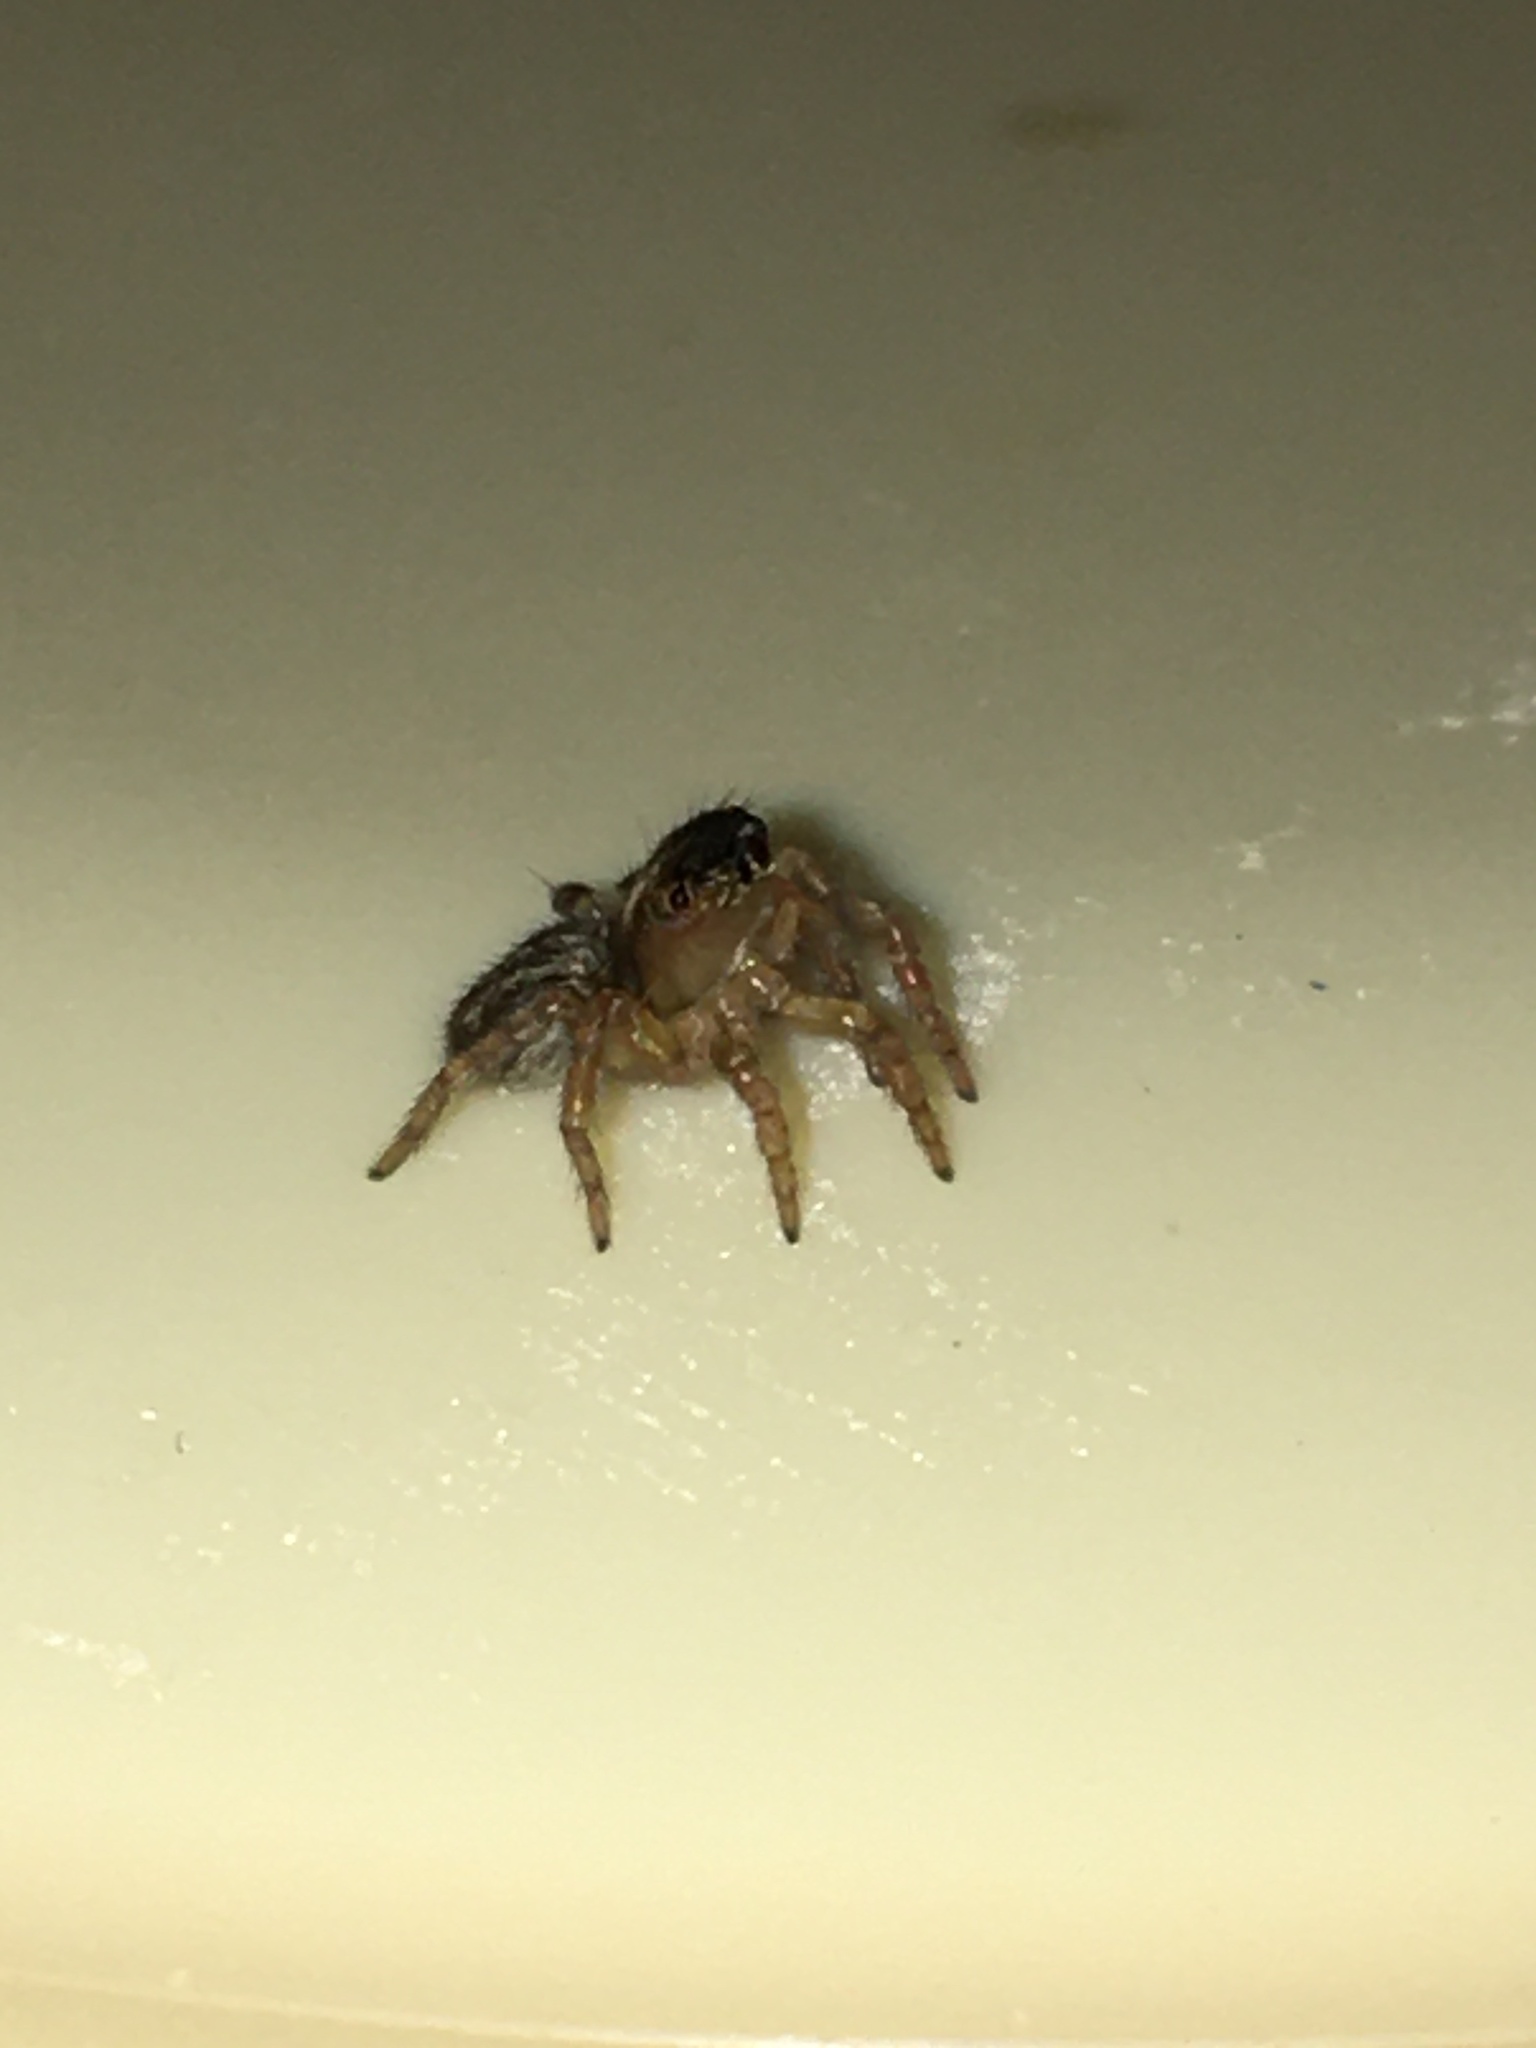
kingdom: Animalia
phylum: Arthropoda
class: Arachnida
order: Araneae
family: Salticidae
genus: Saitis
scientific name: Saitis barbipes
